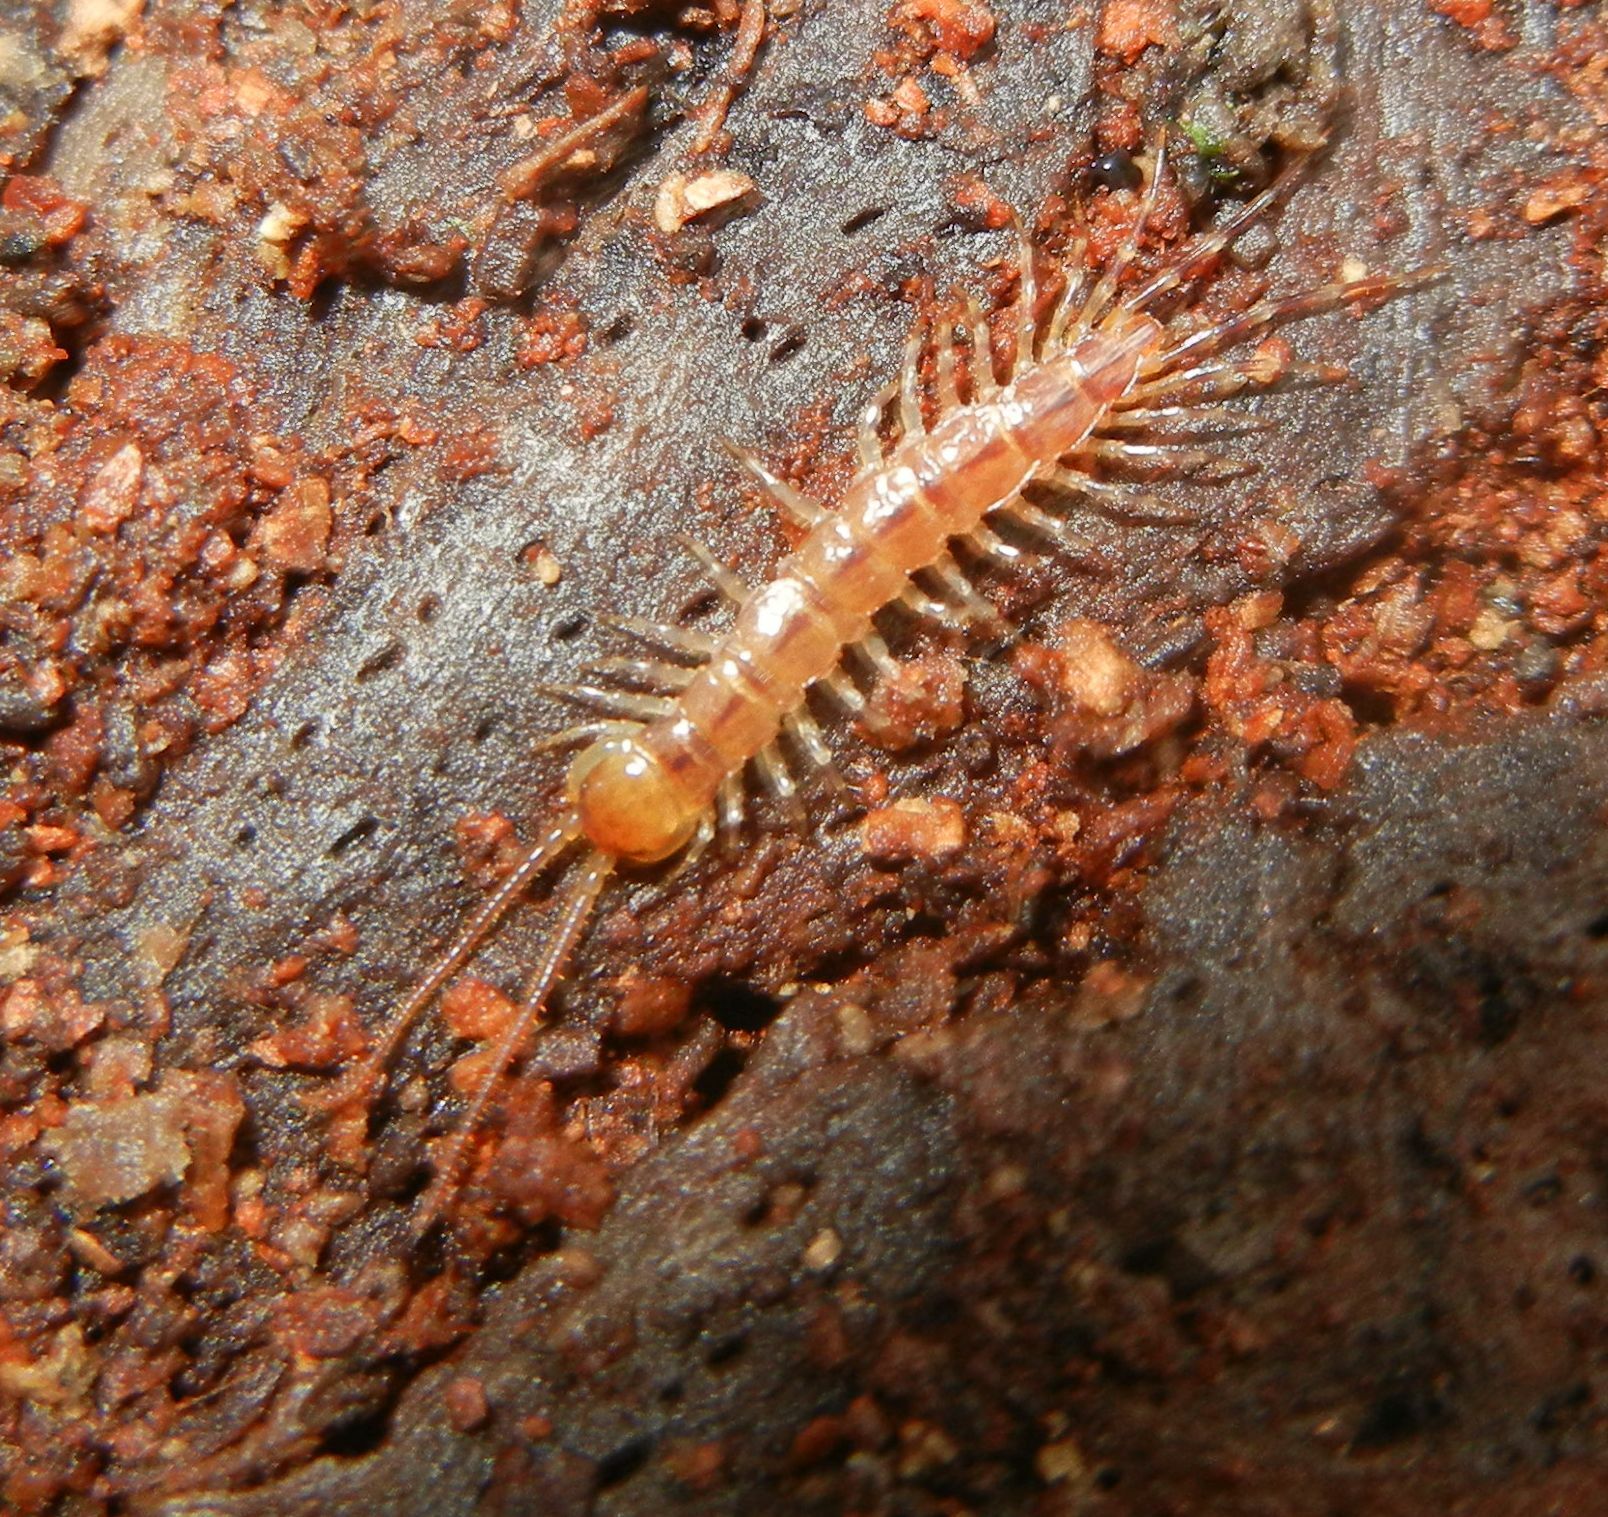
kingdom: Animalia
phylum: Arthropoda
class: Chilopoda
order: Lithobiomorpha
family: Lithobiidae
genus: Lithobius
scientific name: Lithobius variegatus
